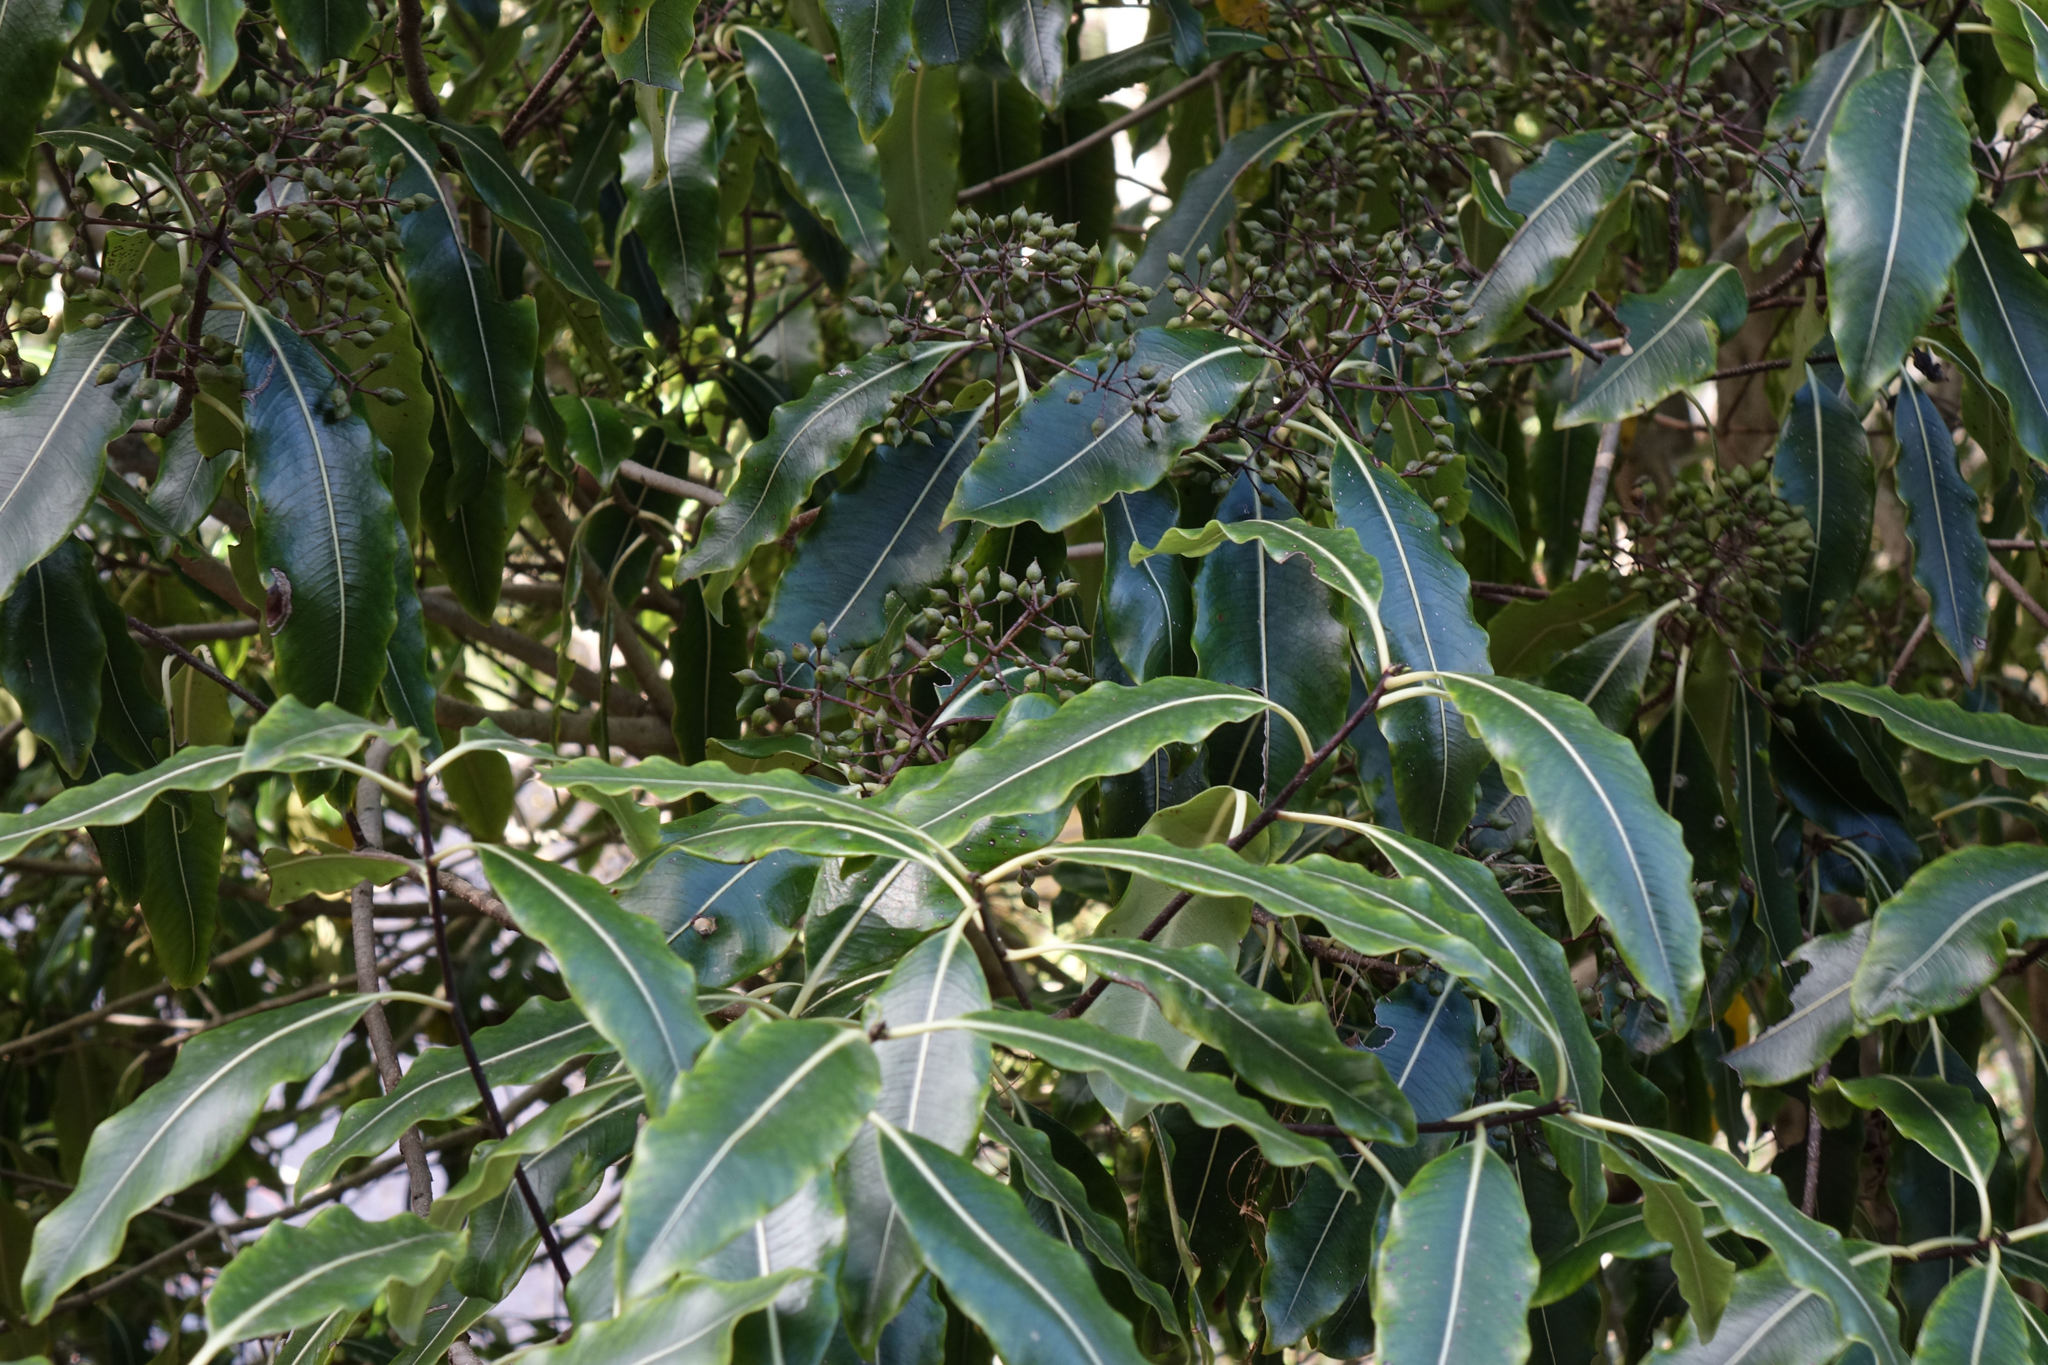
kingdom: Plantae
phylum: Tracheophyta
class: Magnoliopsida
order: Apiales
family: Pittosporaceae
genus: Pittosporum
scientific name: Pittosporum eugenioides
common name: Lemonwood
